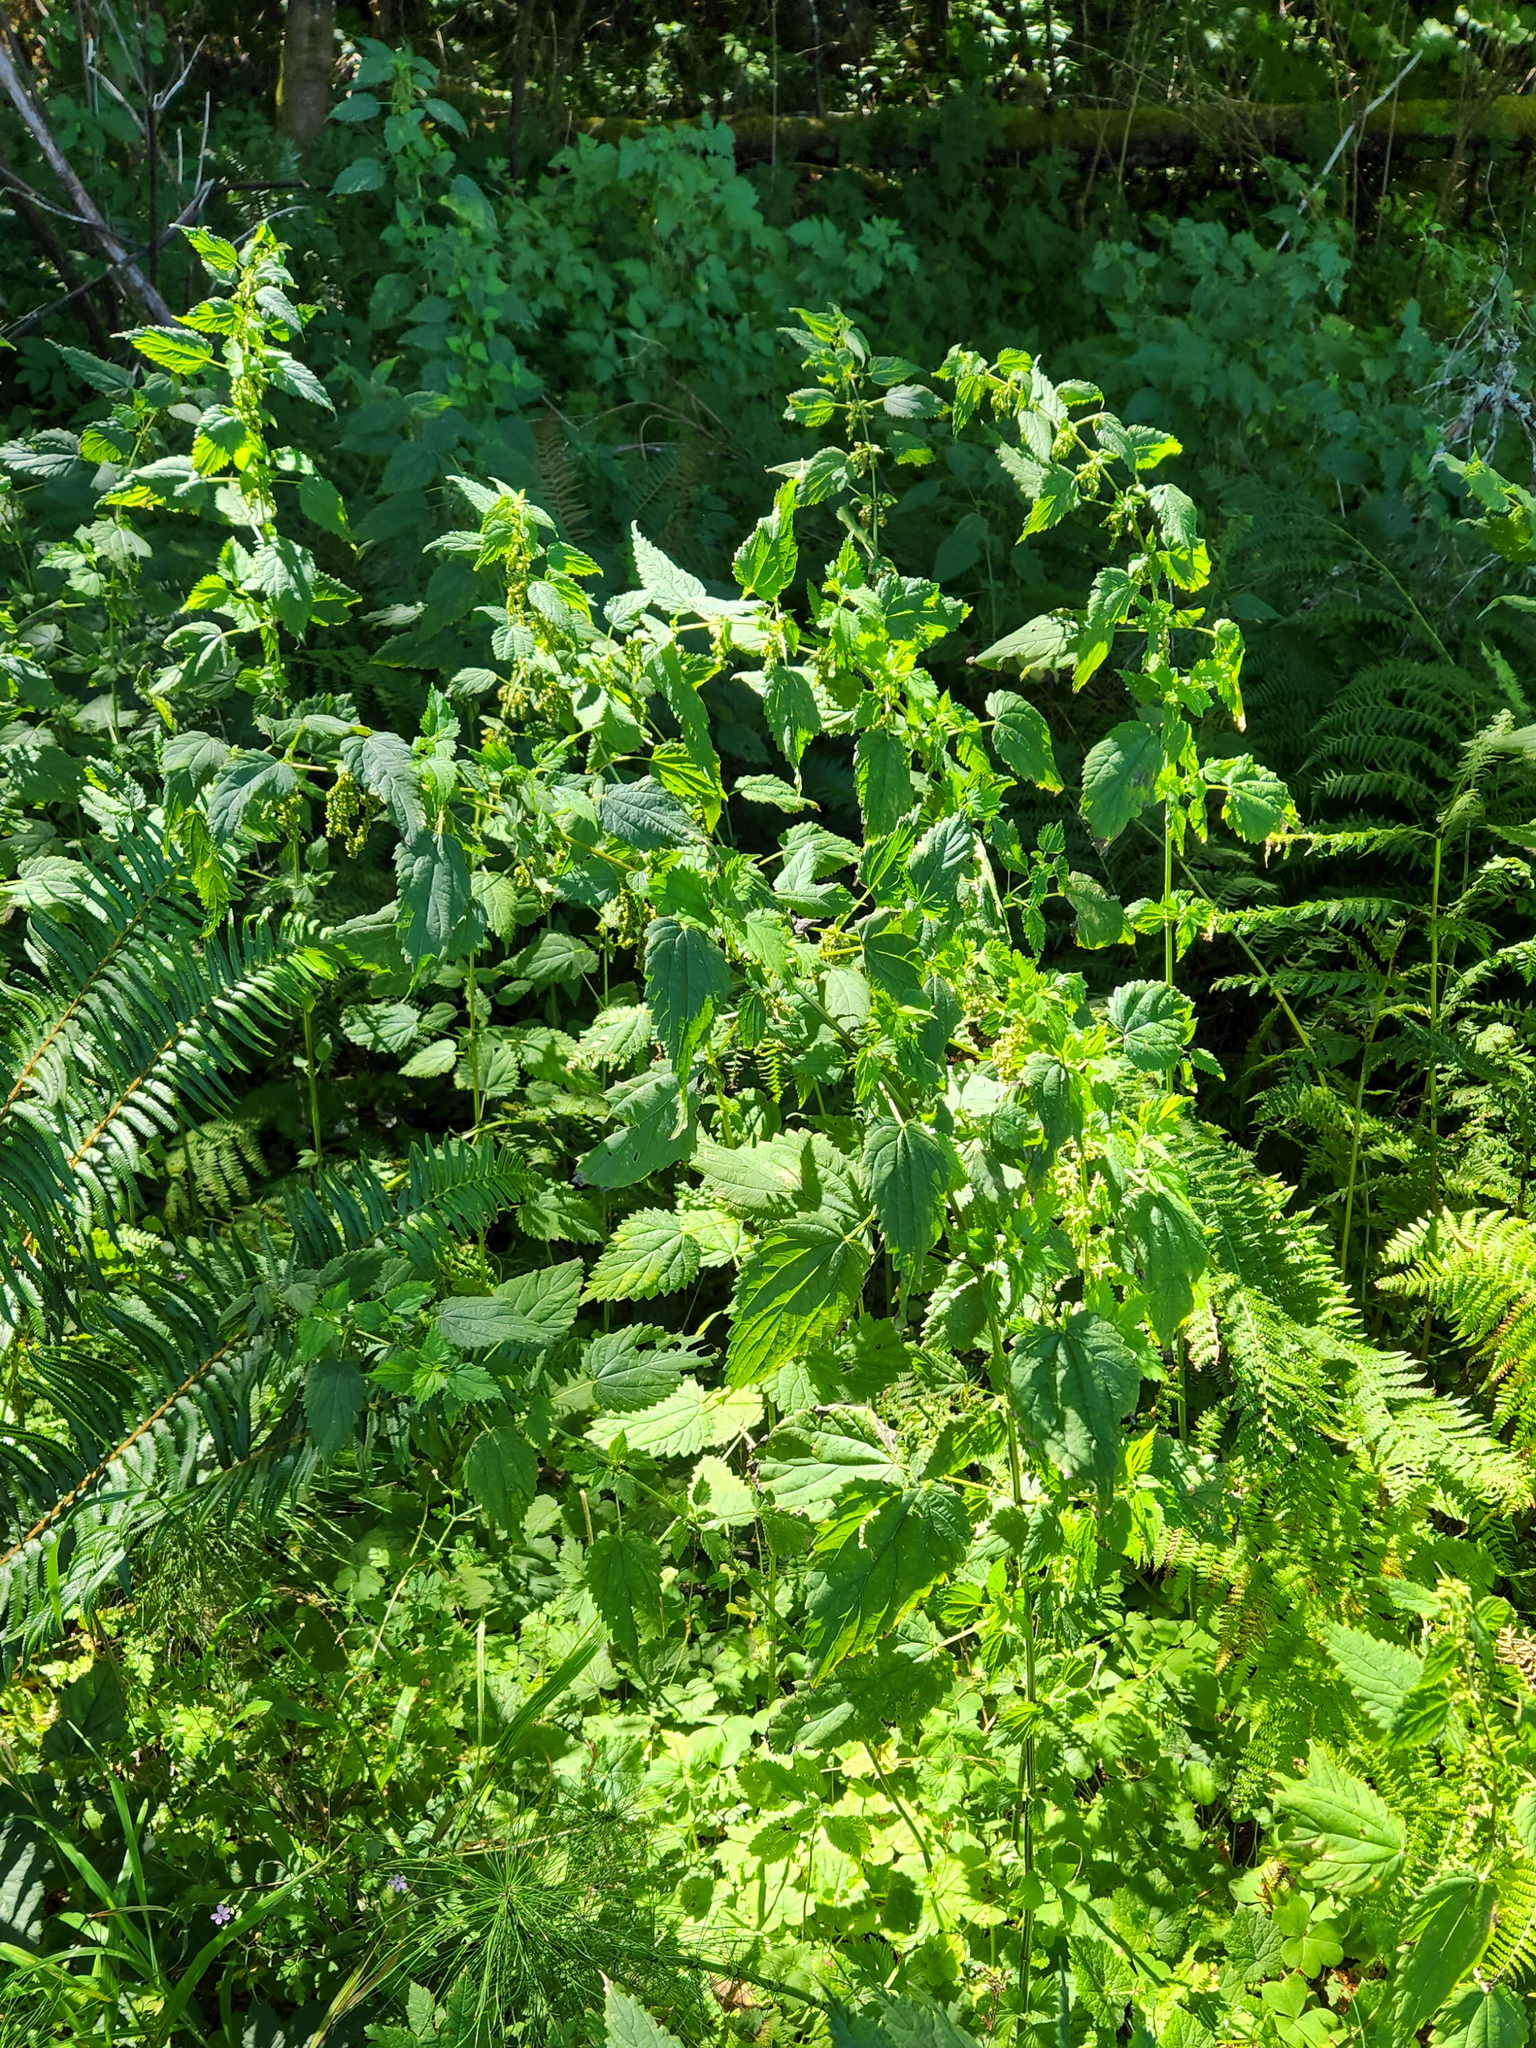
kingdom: Plantae
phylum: Tracheophyta
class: Magnoliopsida
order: Rosales
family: Urticaceae
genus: Urtica
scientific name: Urtica gracilis
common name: Slender stinging nettle
